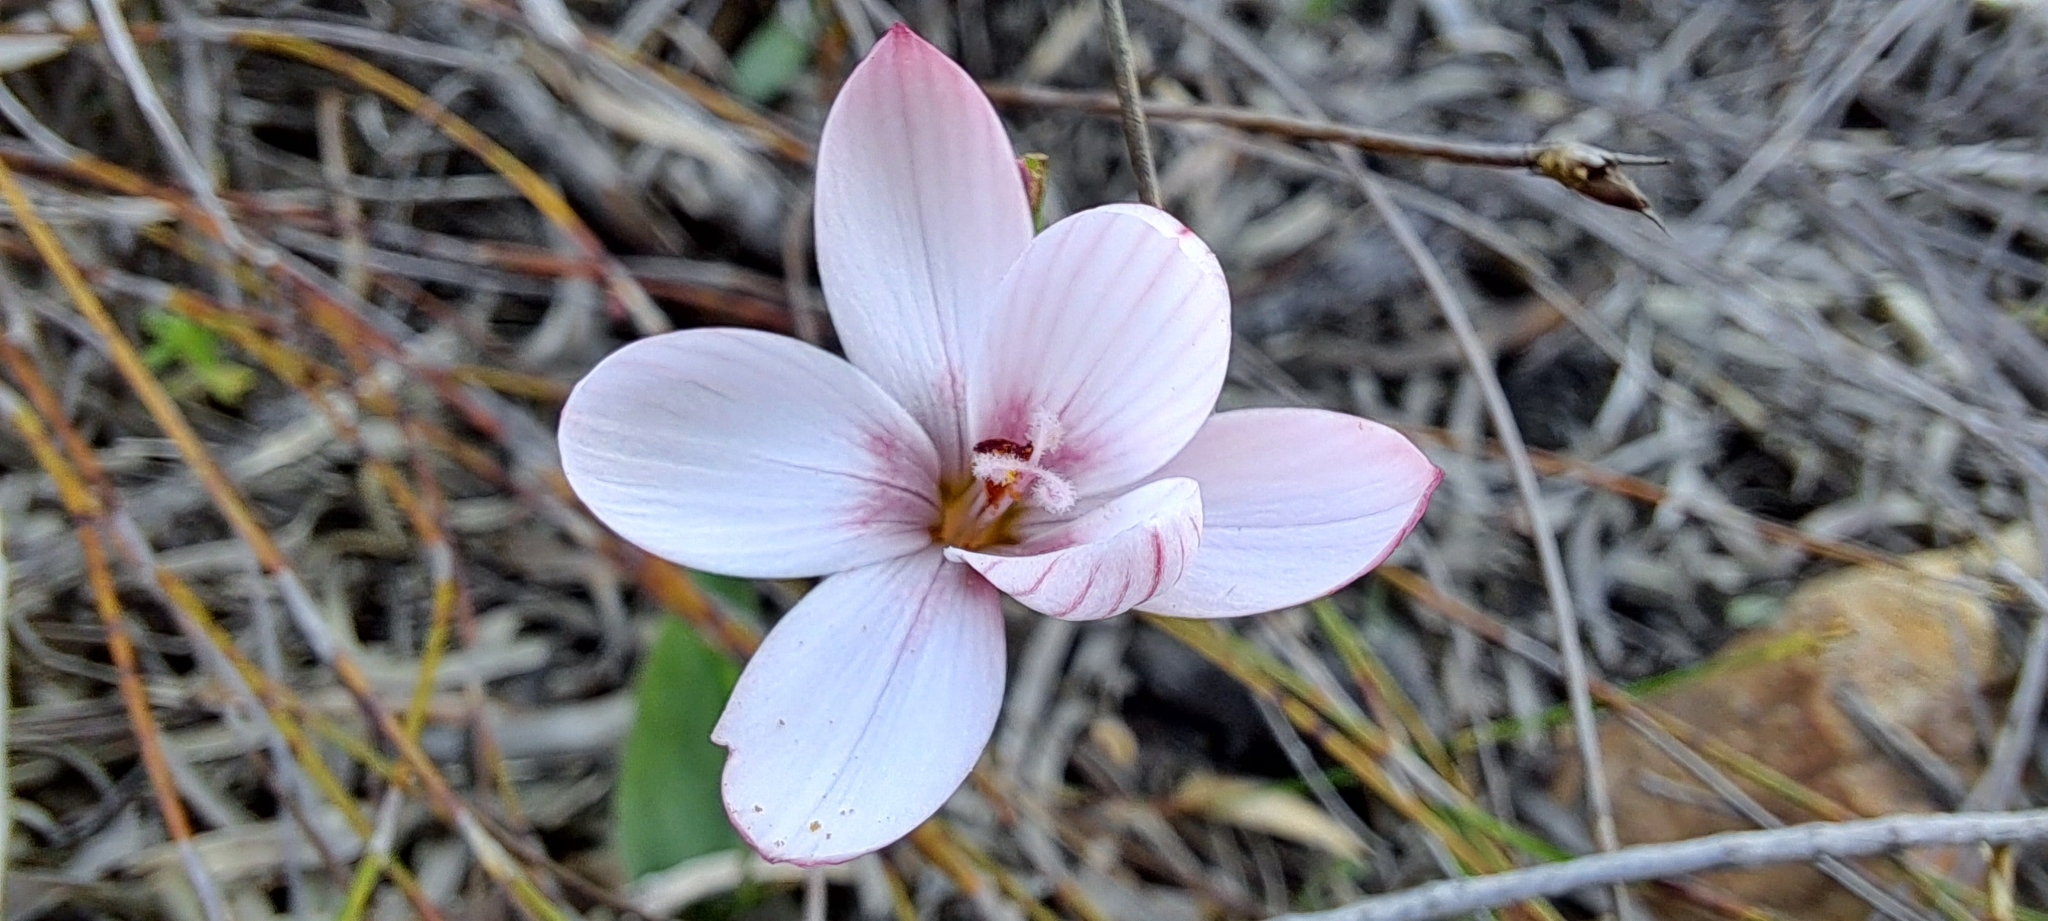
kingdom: Plantae
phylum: Tracheophyta
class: Liliopsida
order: Asparagales
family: Iridaceae
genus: Geissorhiza
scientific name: Geissorhiza ovata
